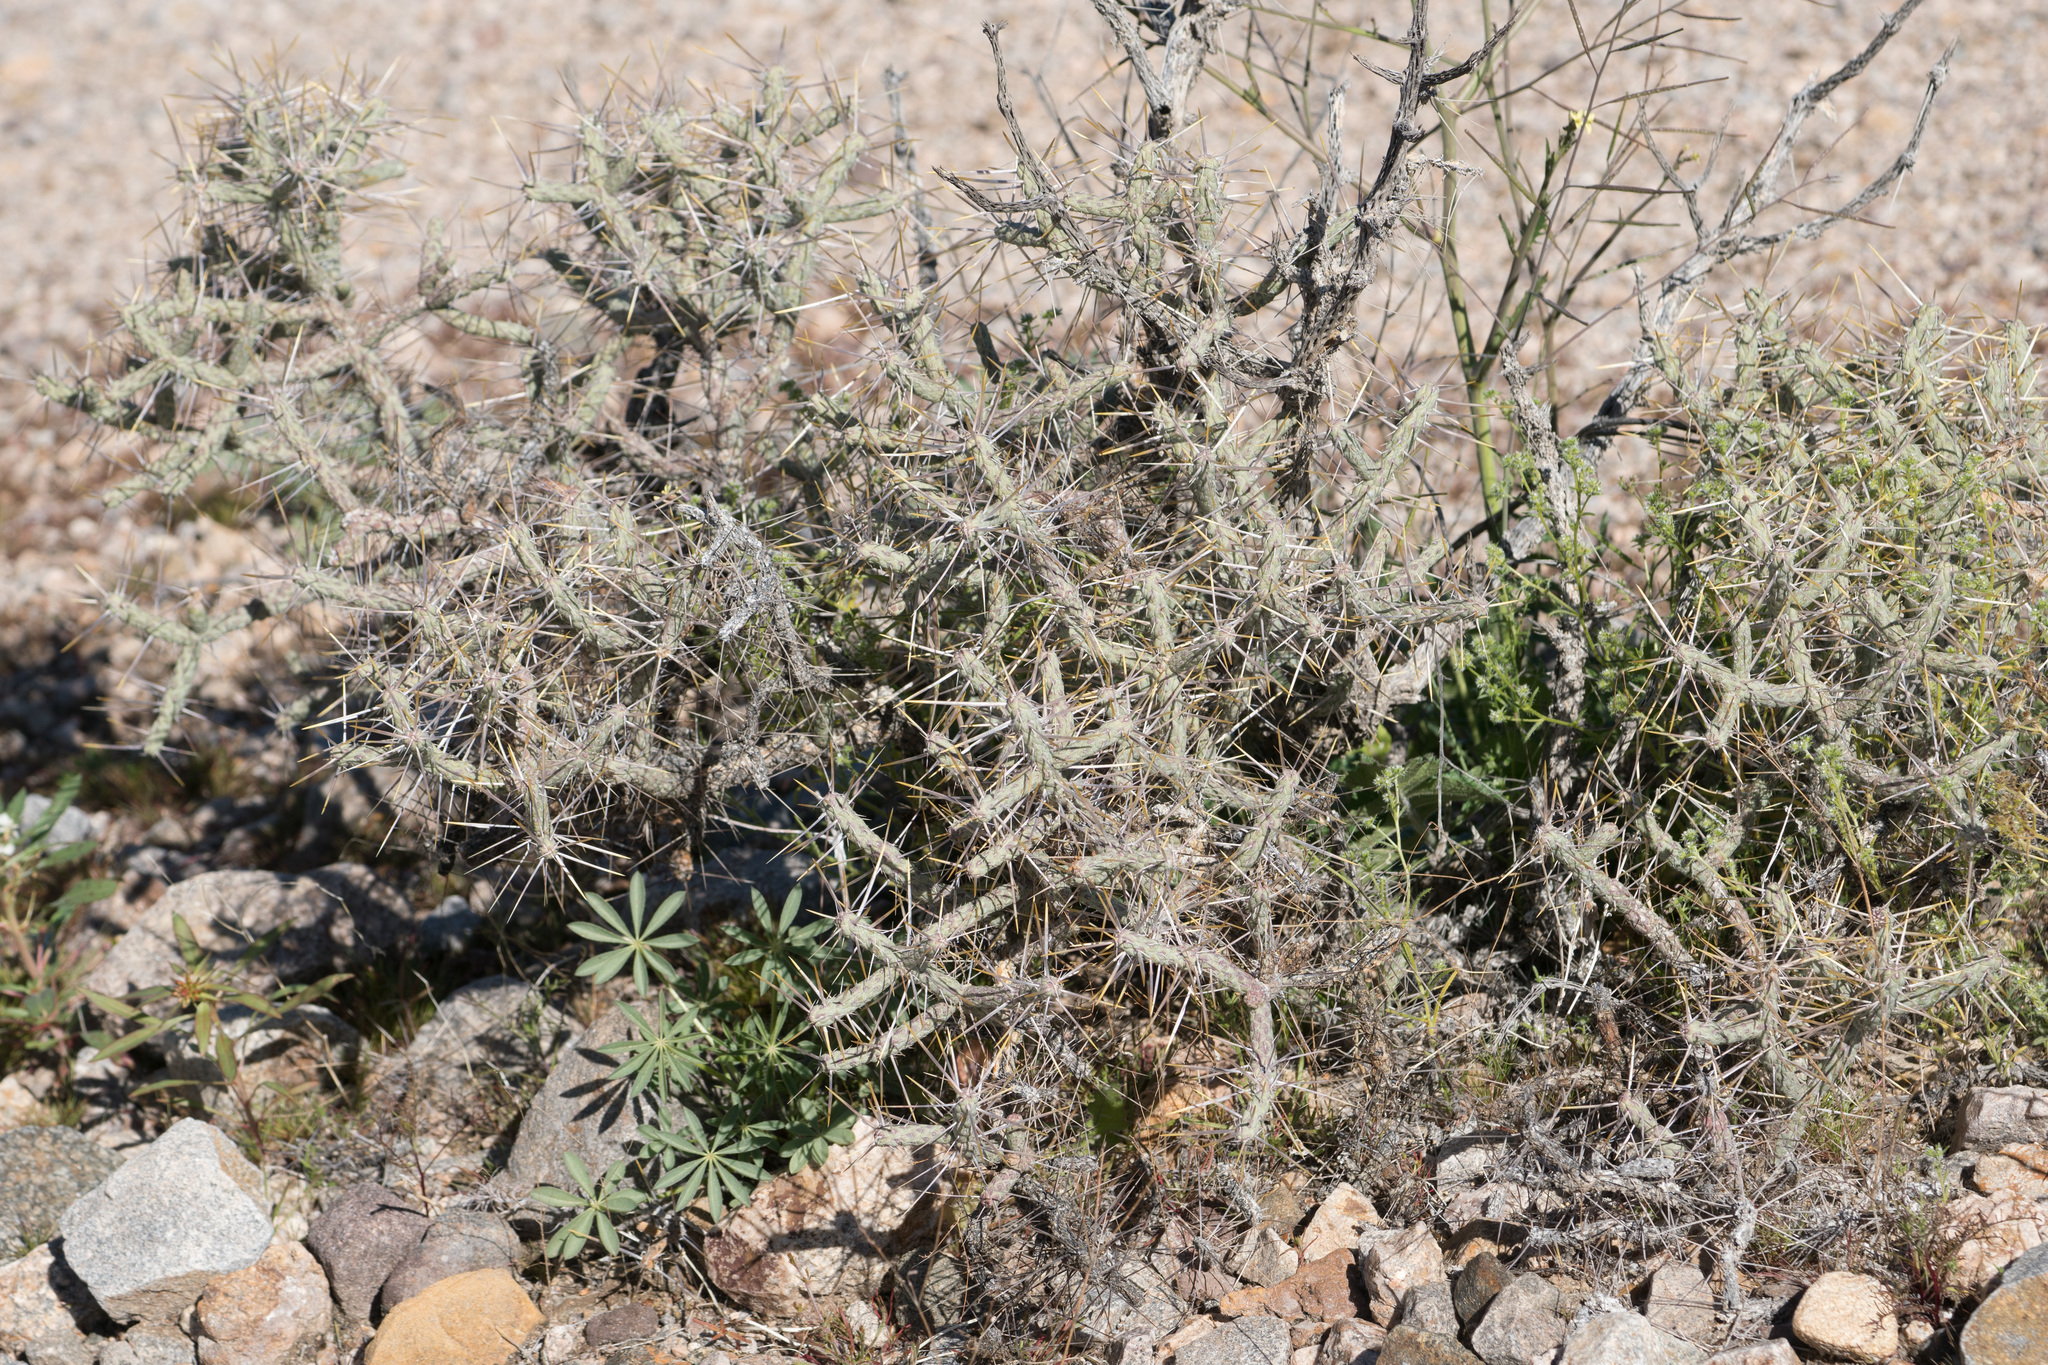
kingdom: Plantae
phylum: Tracheophyta
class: Magnoliopsida
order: Caryophyllales
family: Cactaceae
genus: Cylindropuntia
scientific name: Cylindropuntia ramosissima
